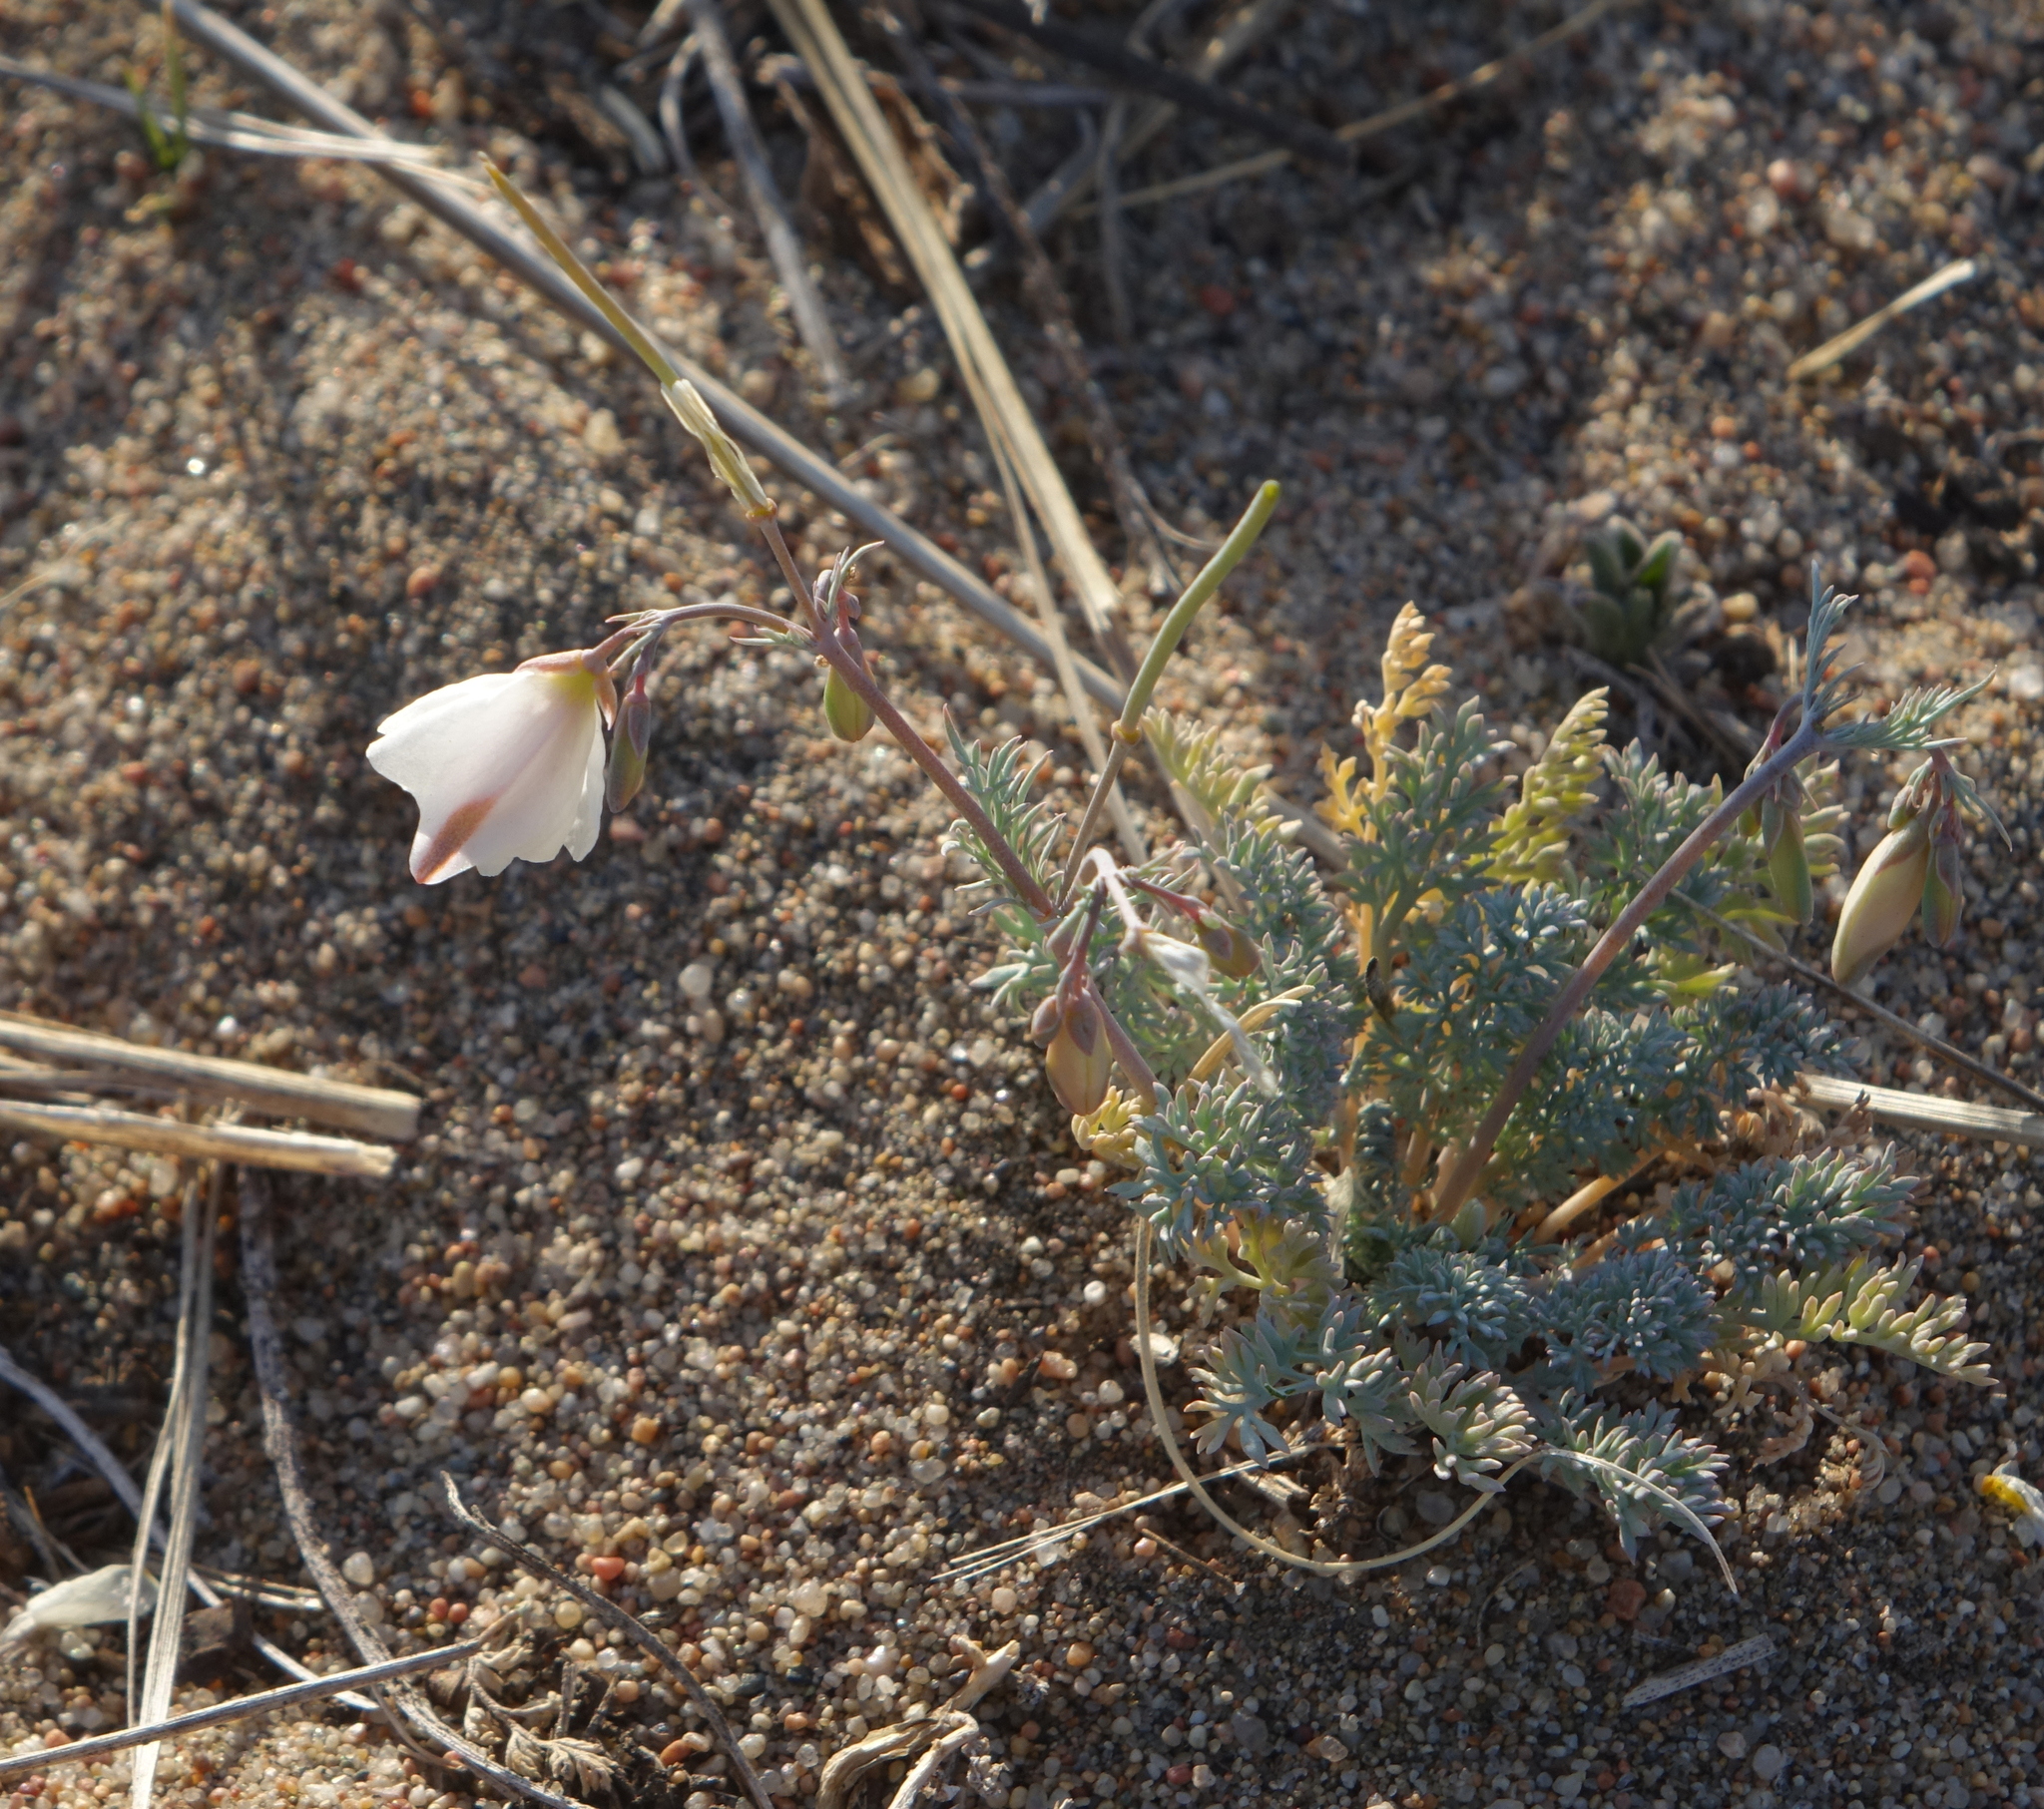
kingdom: Plantae
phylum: Tracheophyta
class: Magnoliopsida
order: Ranunculales
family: Papaveraceae
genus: Hypecoum
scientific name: Hypecoum lactiflorum
